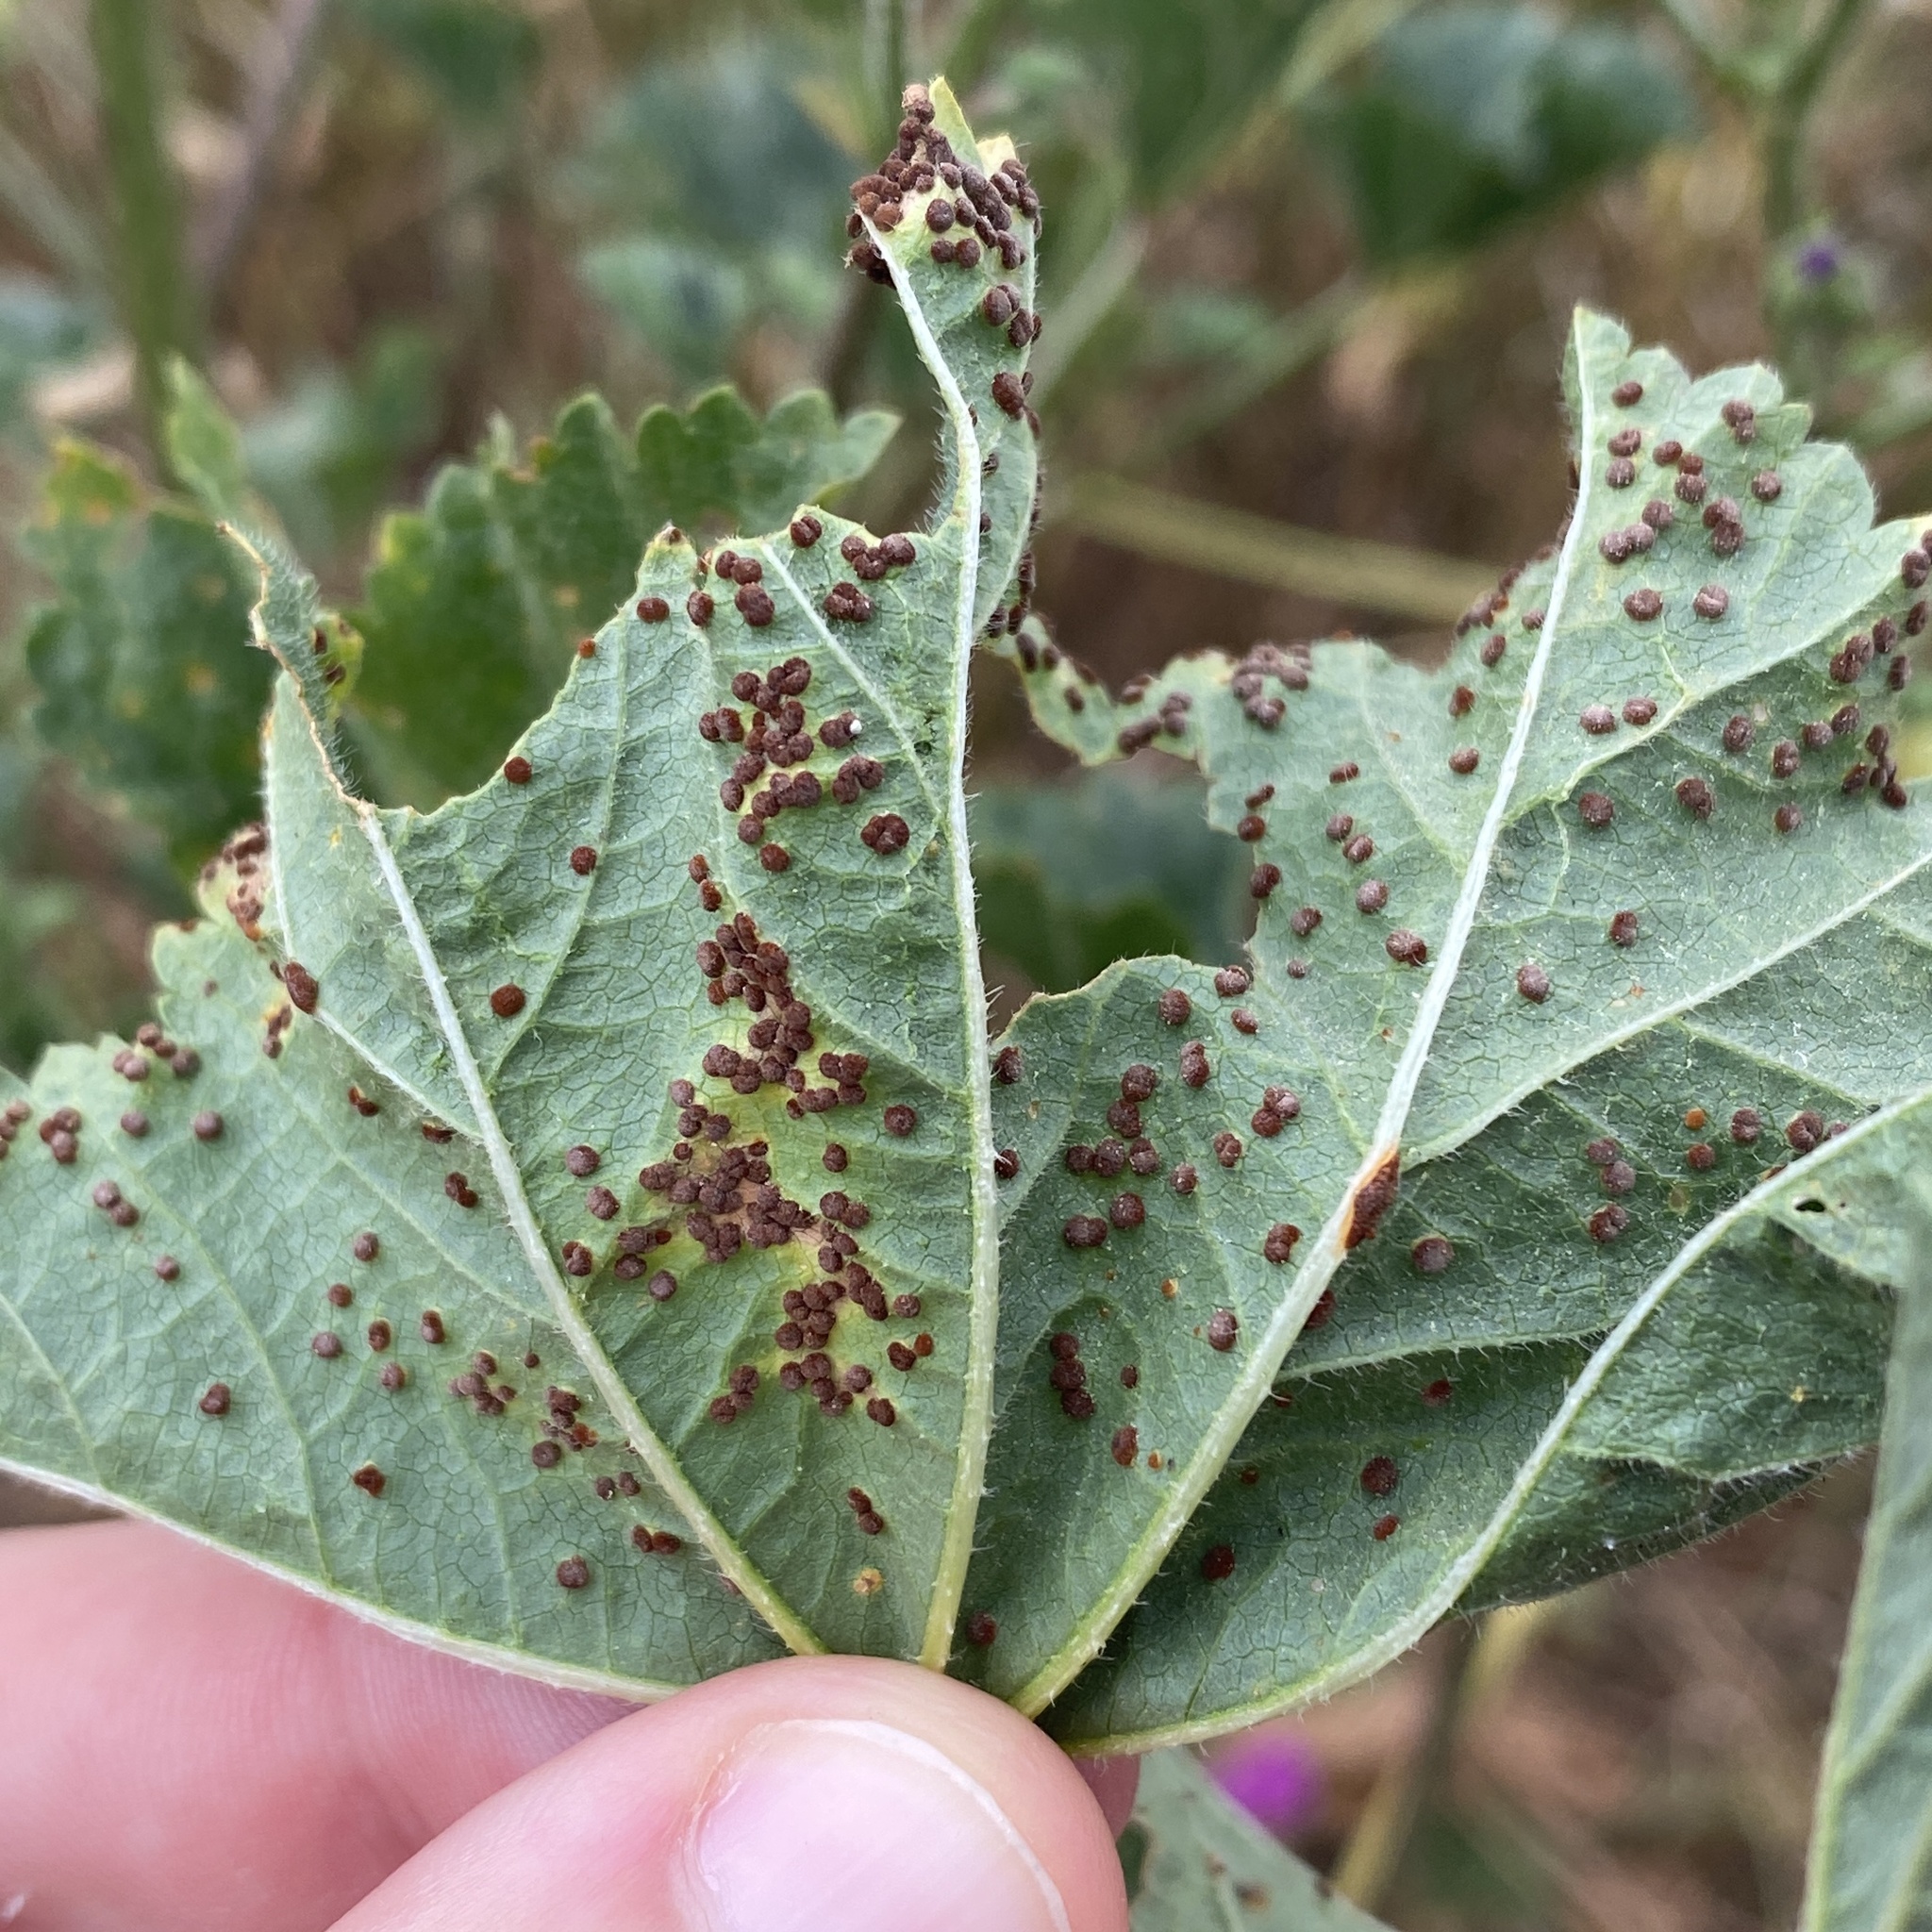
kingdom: Fungi
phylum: Basidiomycota
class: Pucciniomycetes
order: Pucciniales
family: Pucciniaceae
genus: Puccinia
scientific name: Puccinia malvacearum
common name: Hollyhock rust
